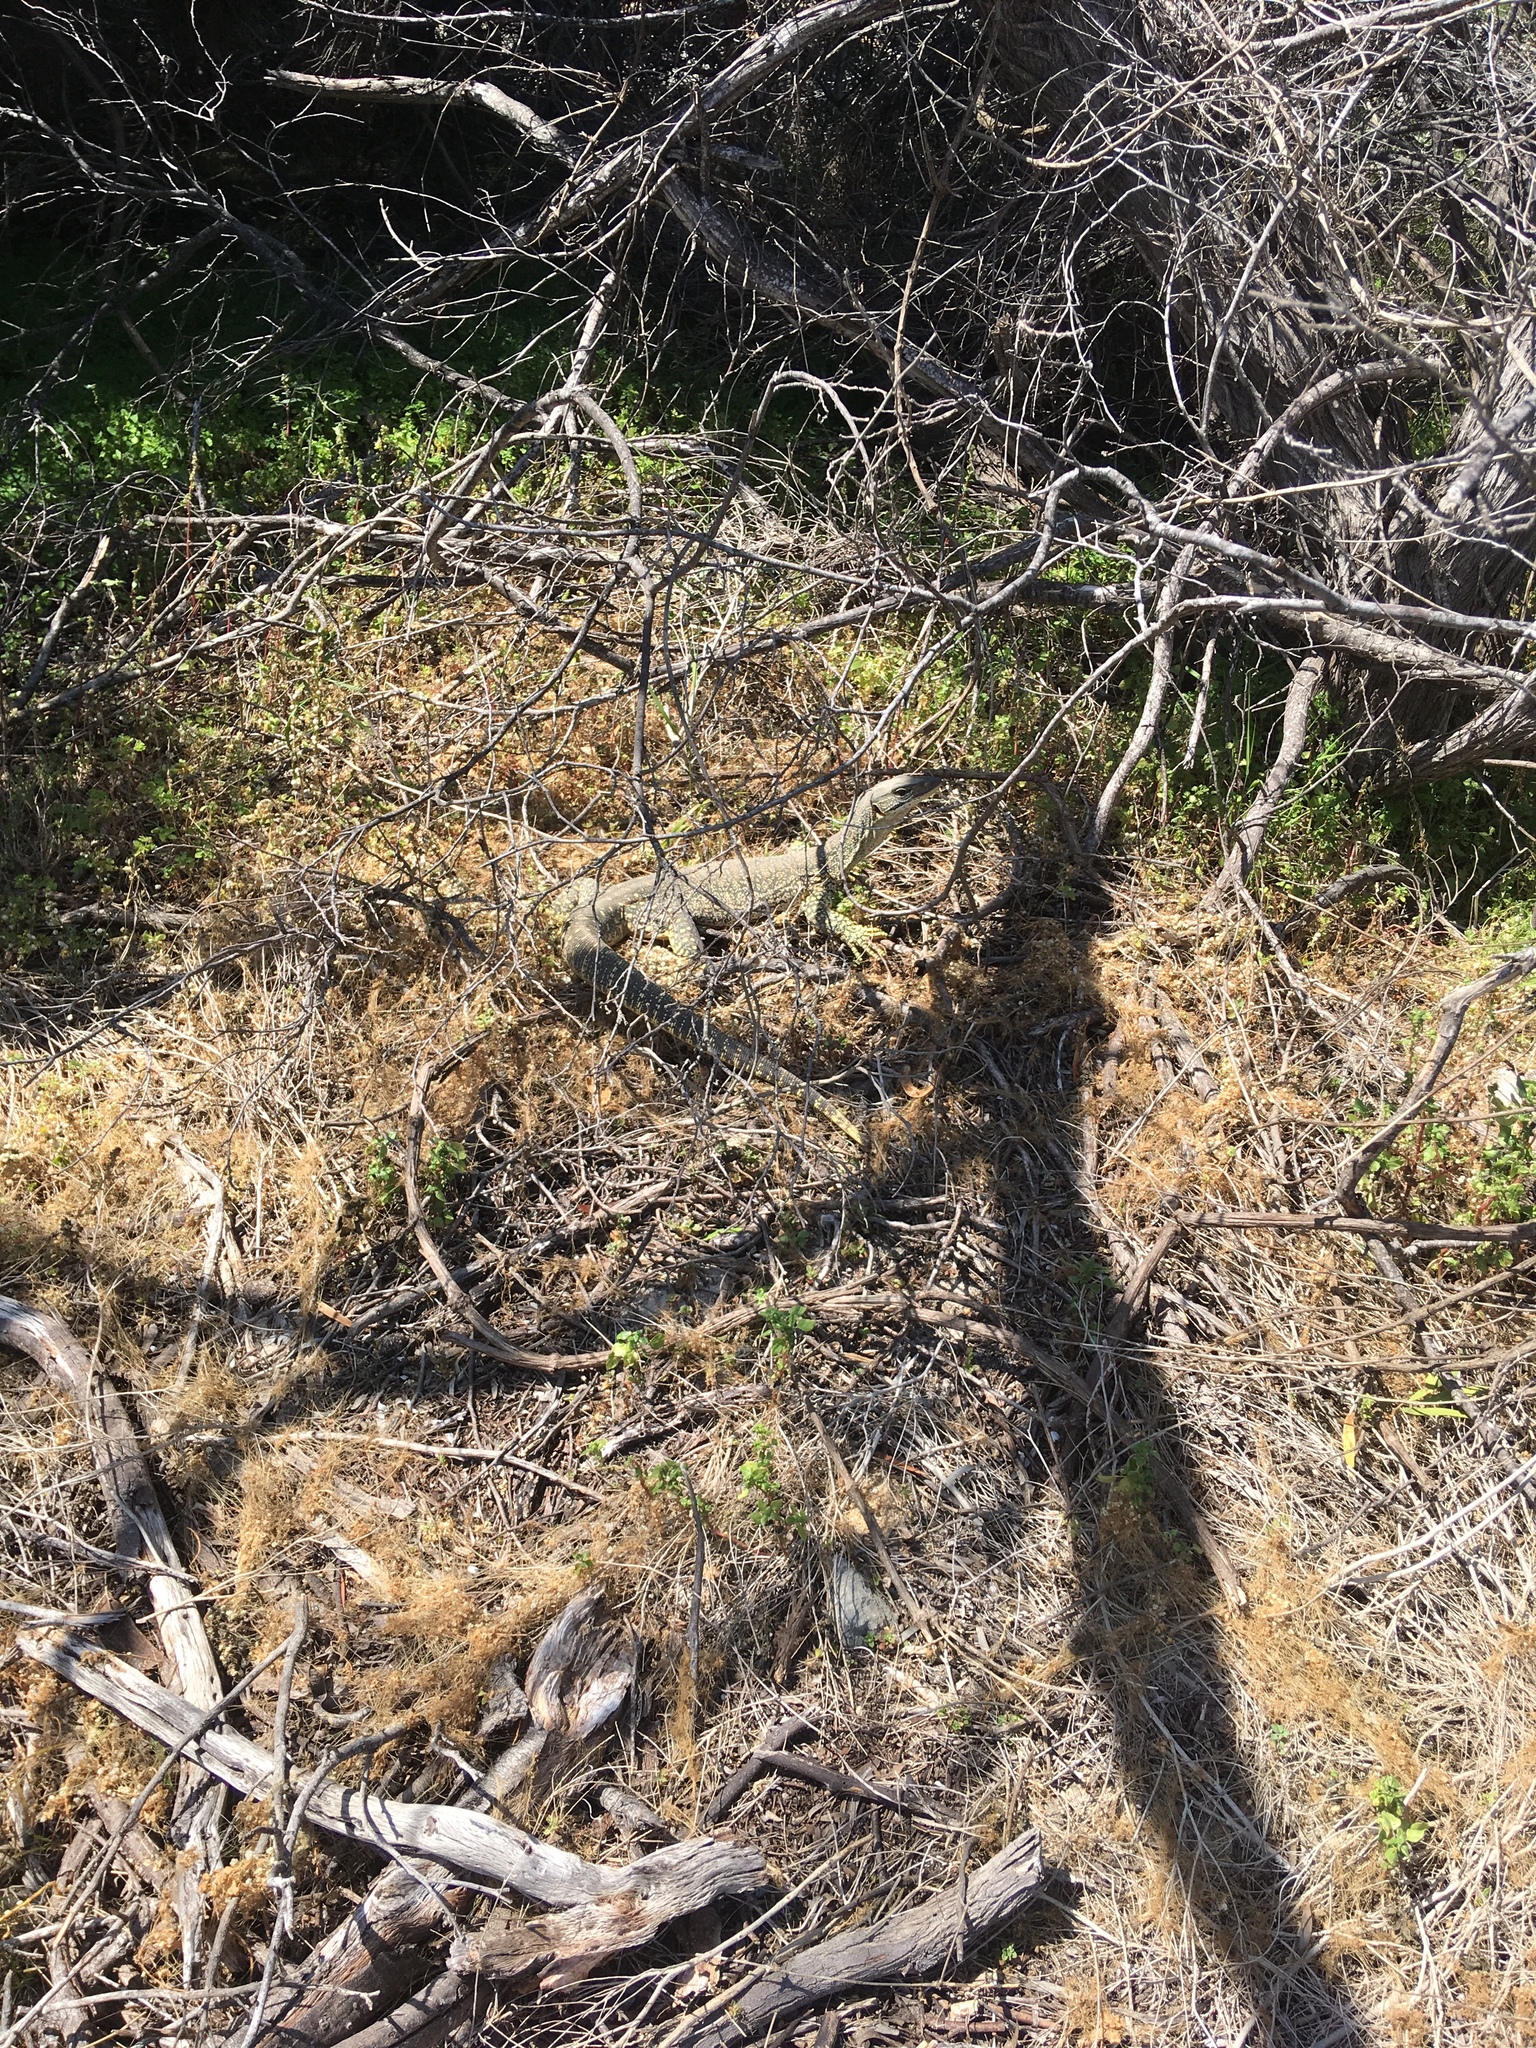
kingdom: Animalia
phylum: Chordata
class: Squamata
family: Varanidae
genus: Varanus
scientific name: Varanus gouldii
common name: Gould's goanna
